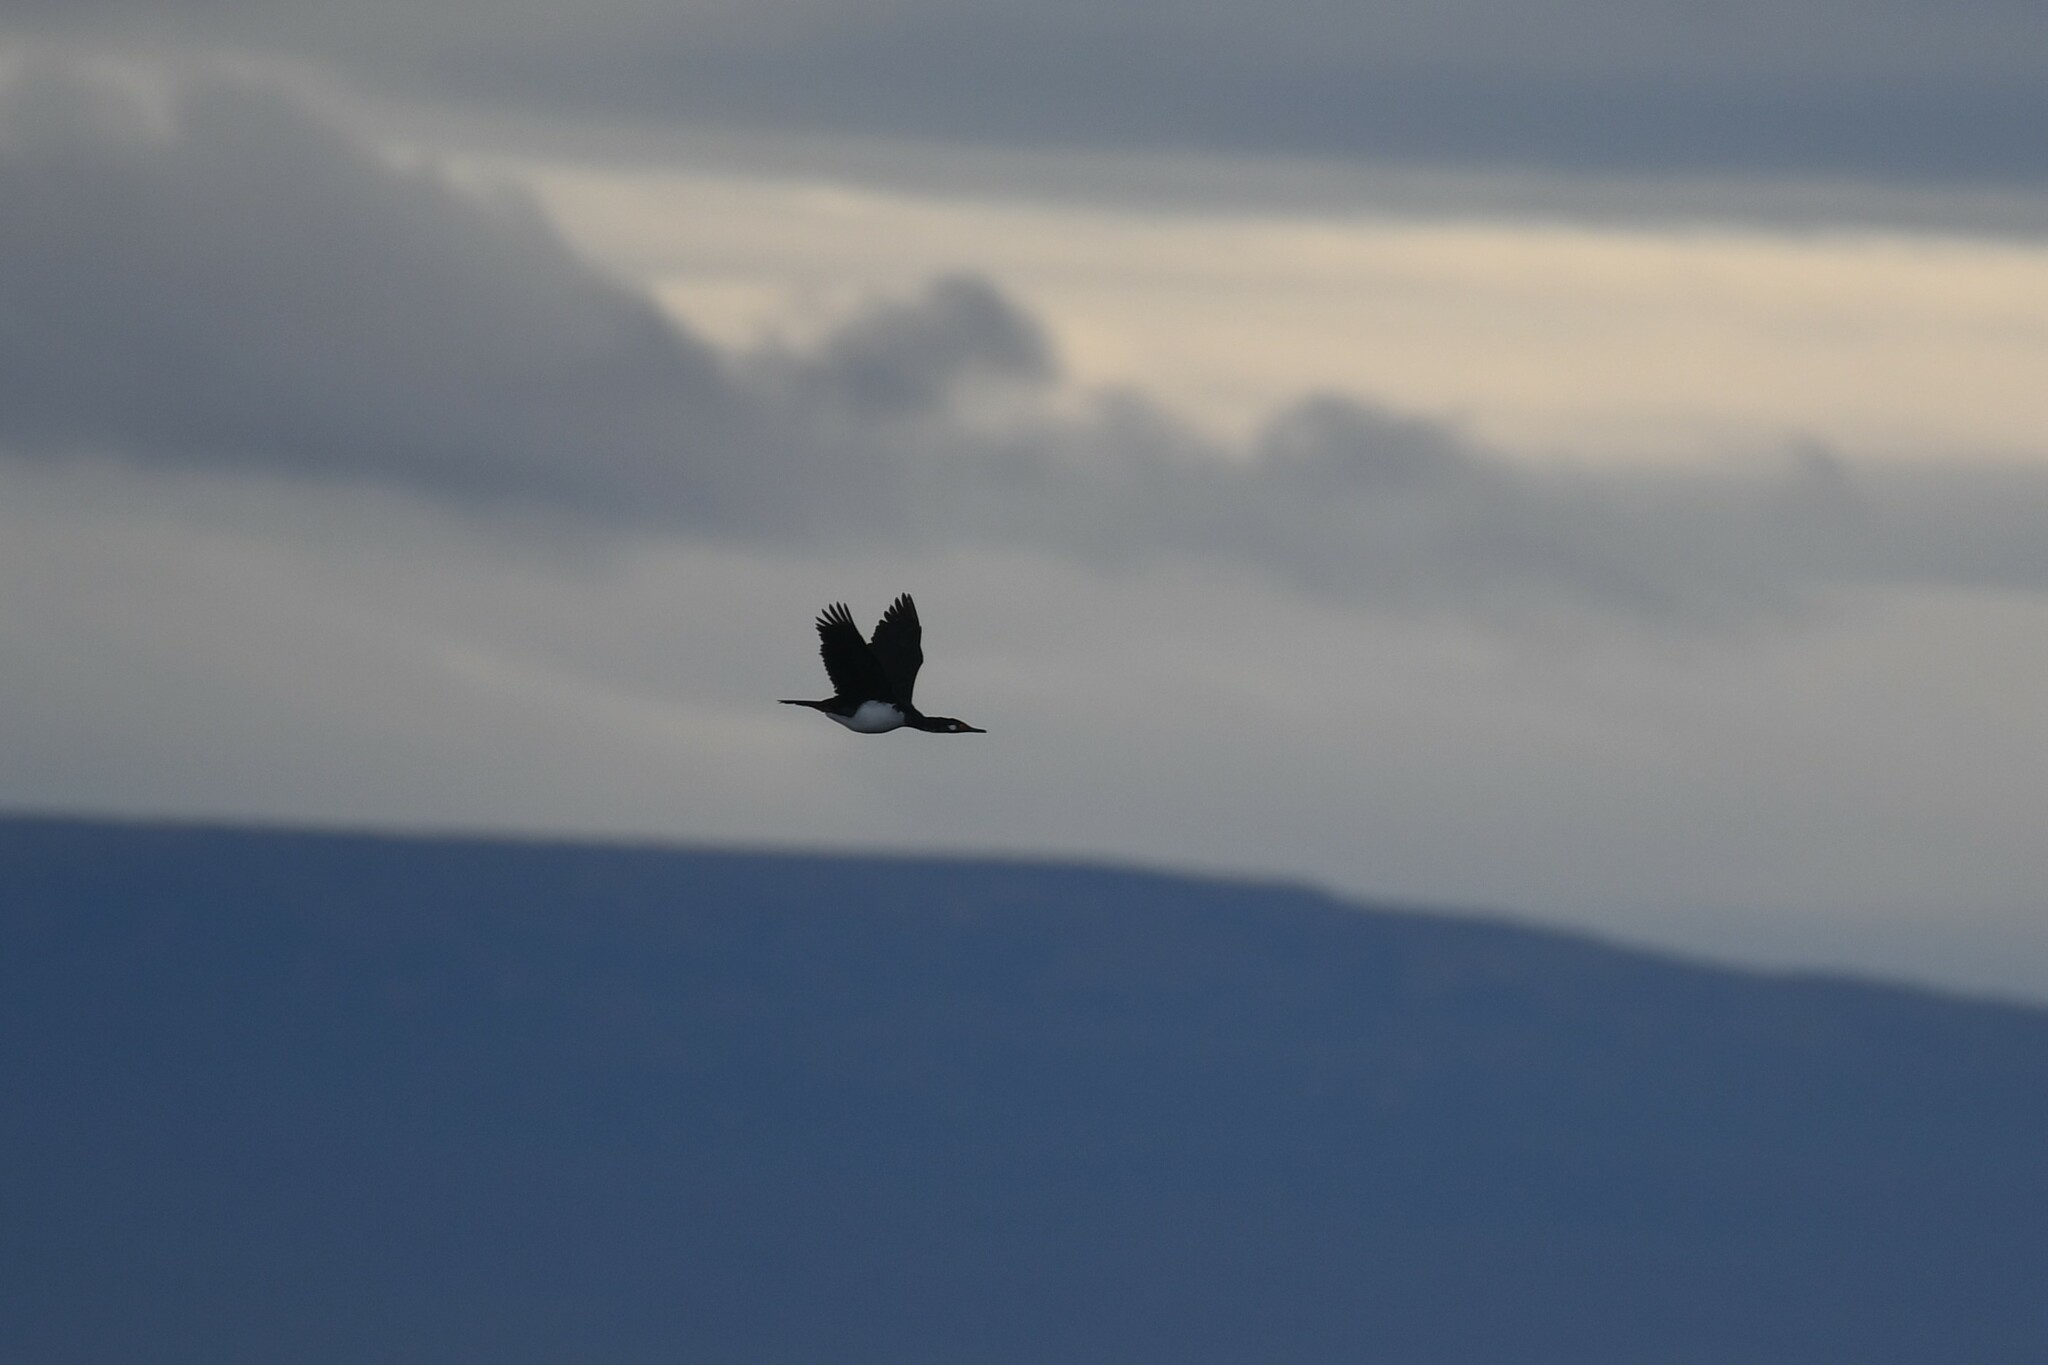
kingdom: Animalia
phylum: Chordata
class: Aves
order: Suliformes
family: Phalacrocoracidae
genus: Phalacrocorax
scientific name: Phalacrocorax magellanicus
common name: Rock shag
